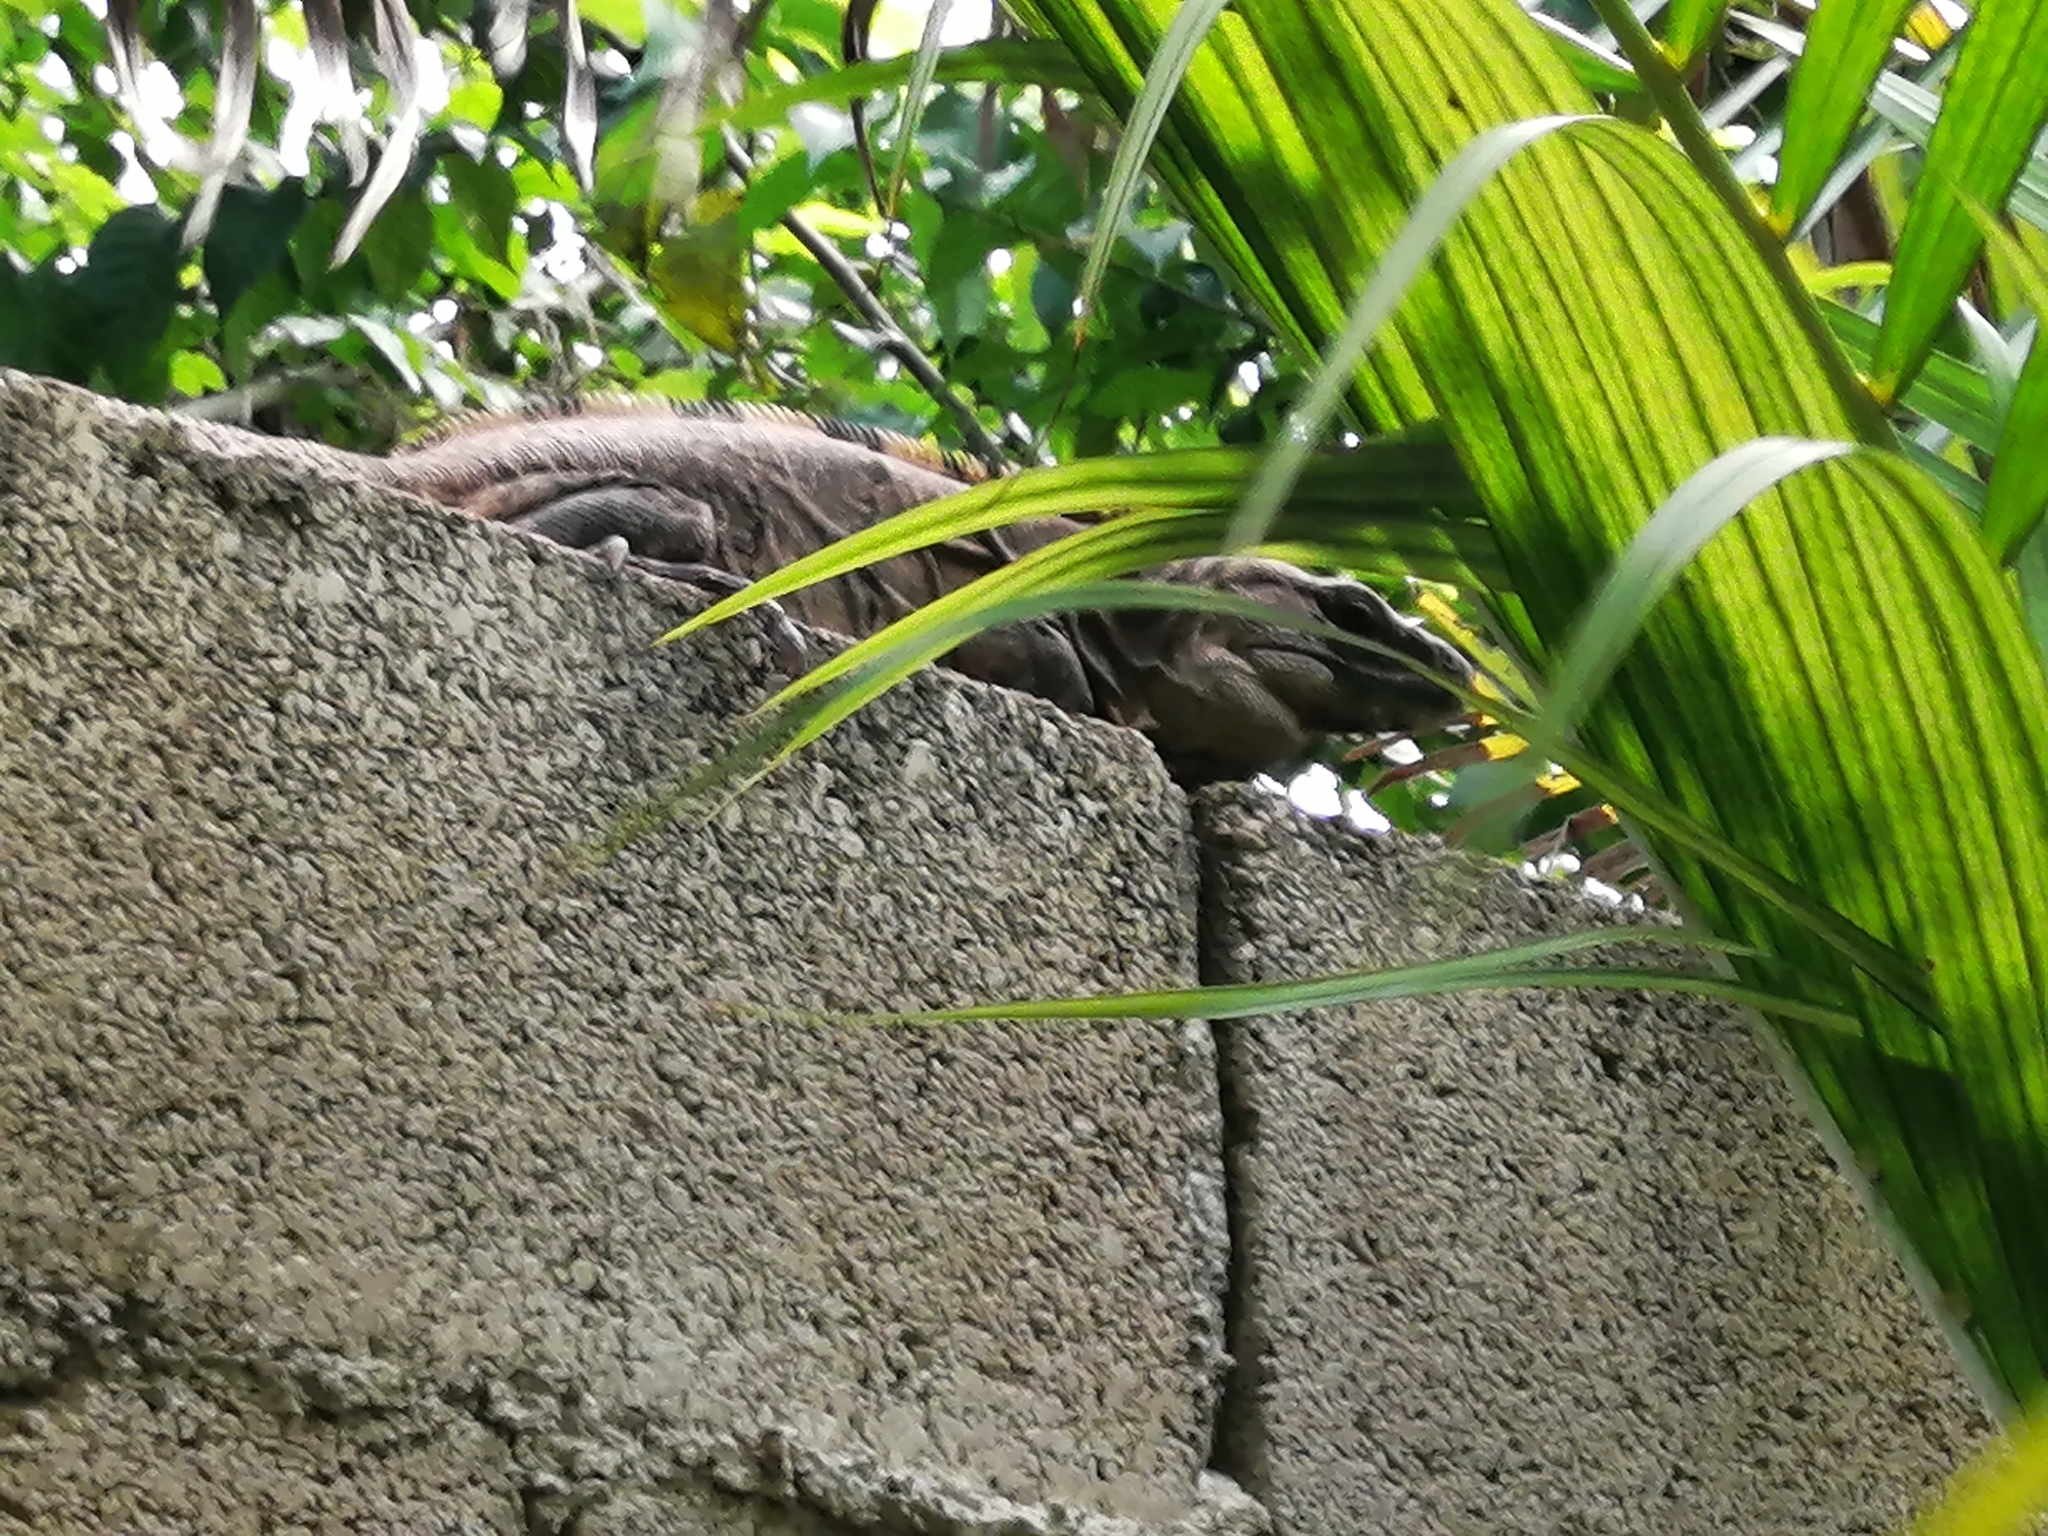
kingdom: Animalia
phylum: Chordata
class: Squamata
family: Iguanidae
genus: Ctenosaura
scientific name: Ctenosaura similis
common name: Black spiny-tailed iguana
